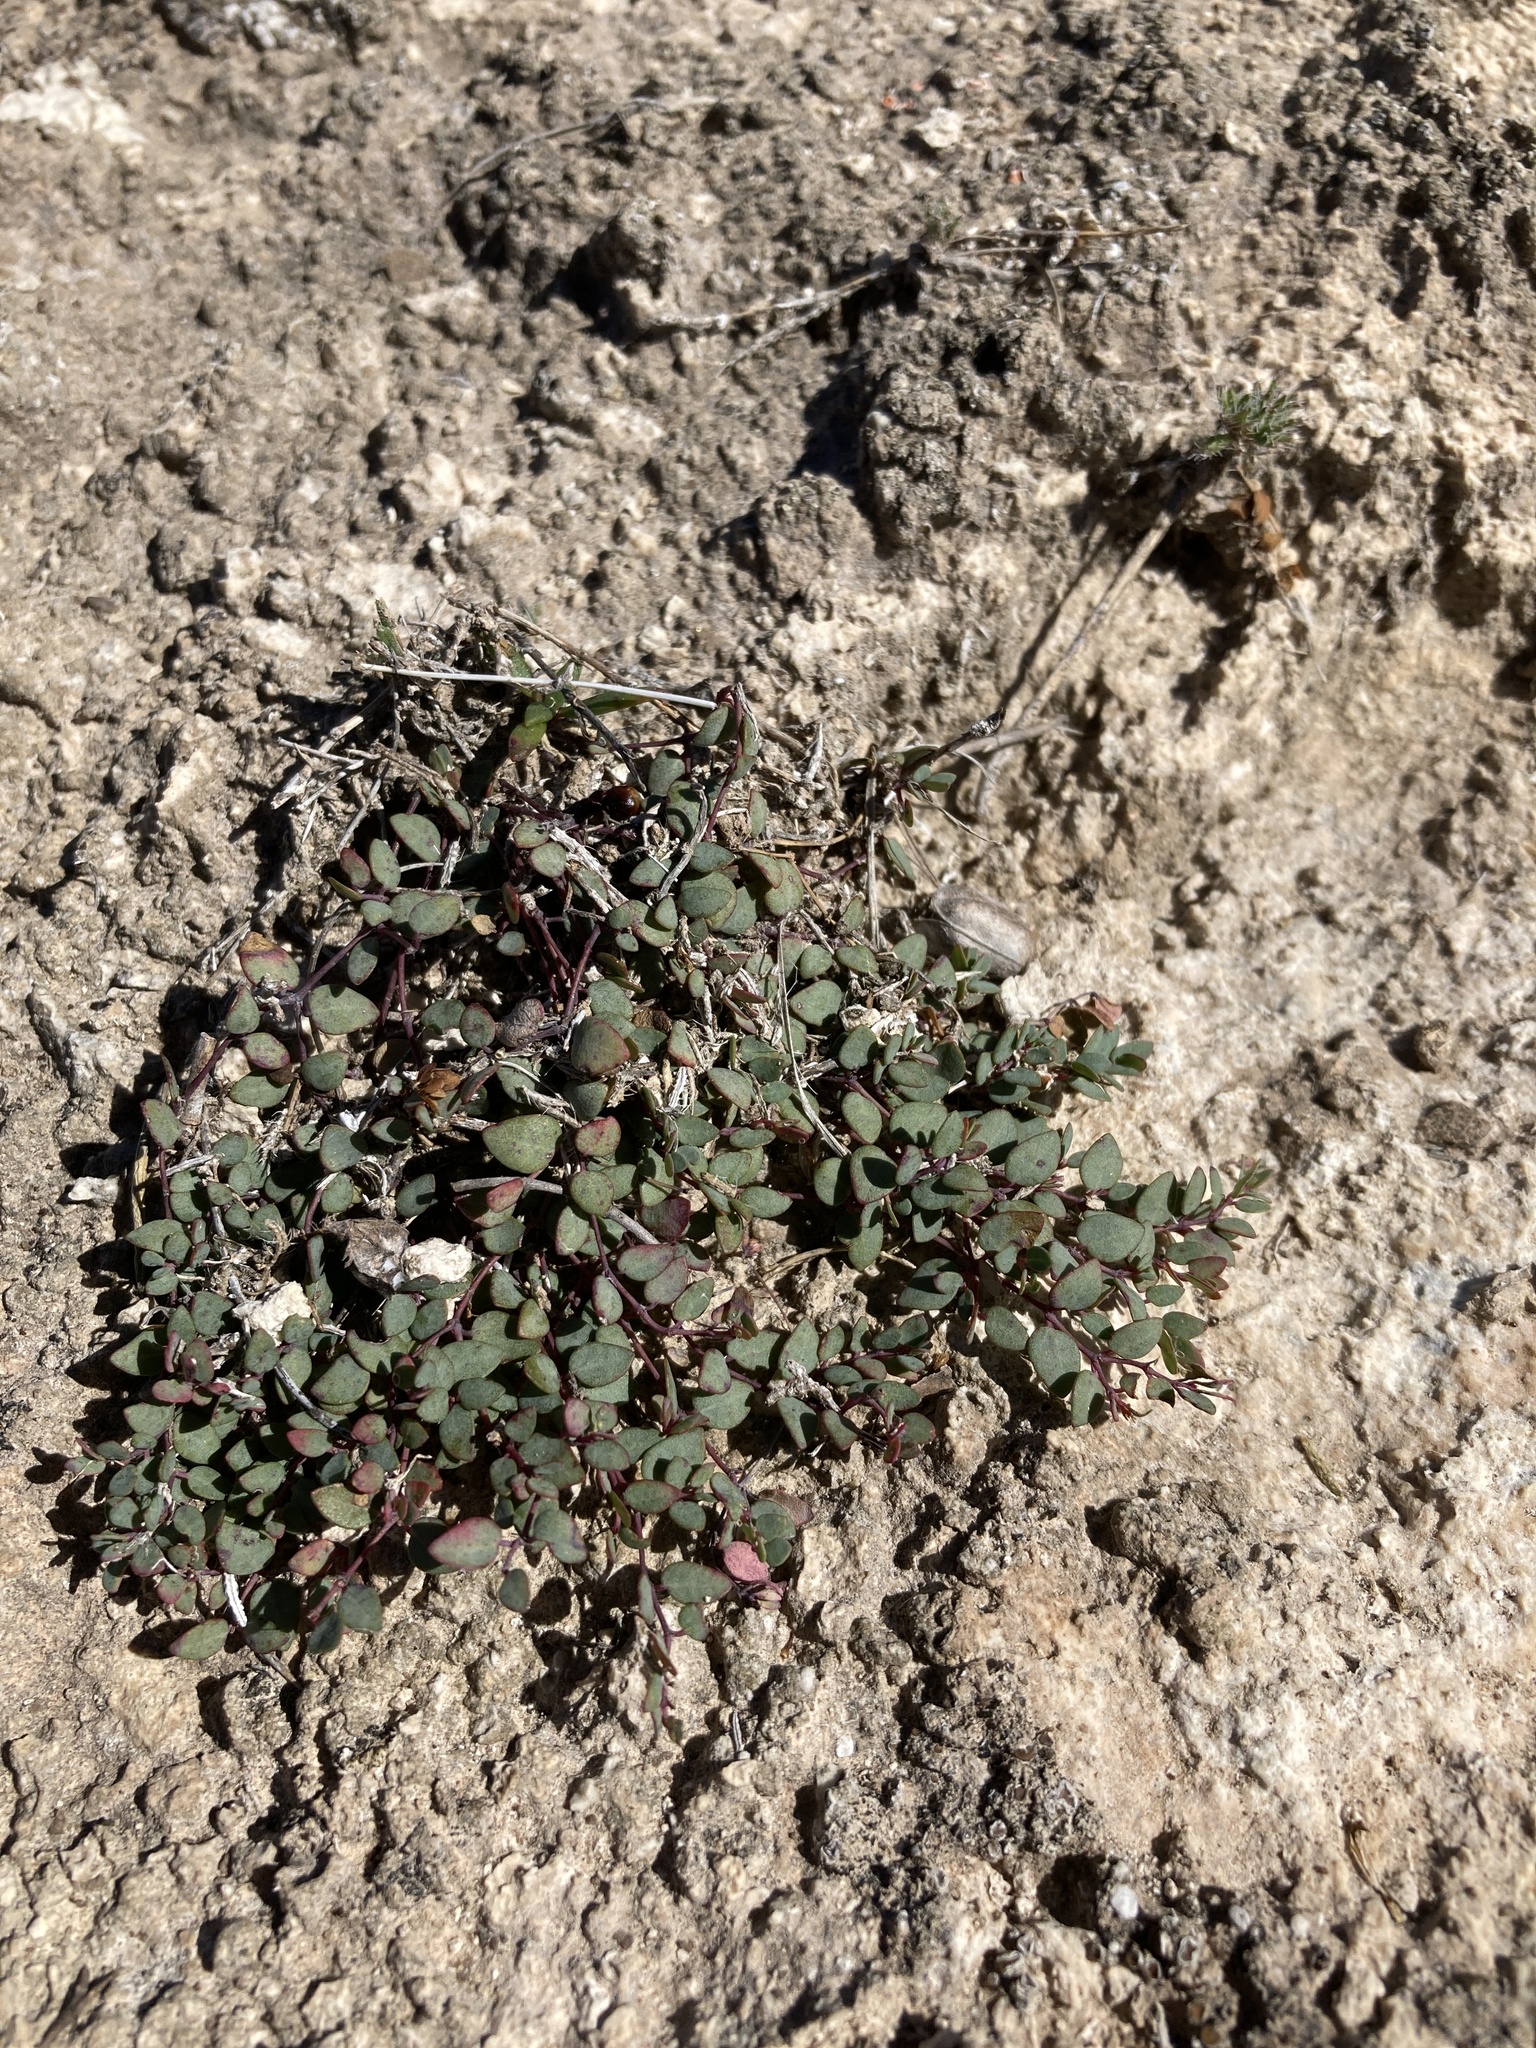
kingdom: Plantae
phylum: Tracheophyta
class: Magnoliopsida
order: Malpighiales
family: Euphorbiaceae
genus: Euphorbia
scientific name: Euphorbia fendleri
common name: Fendler's euphorbia
